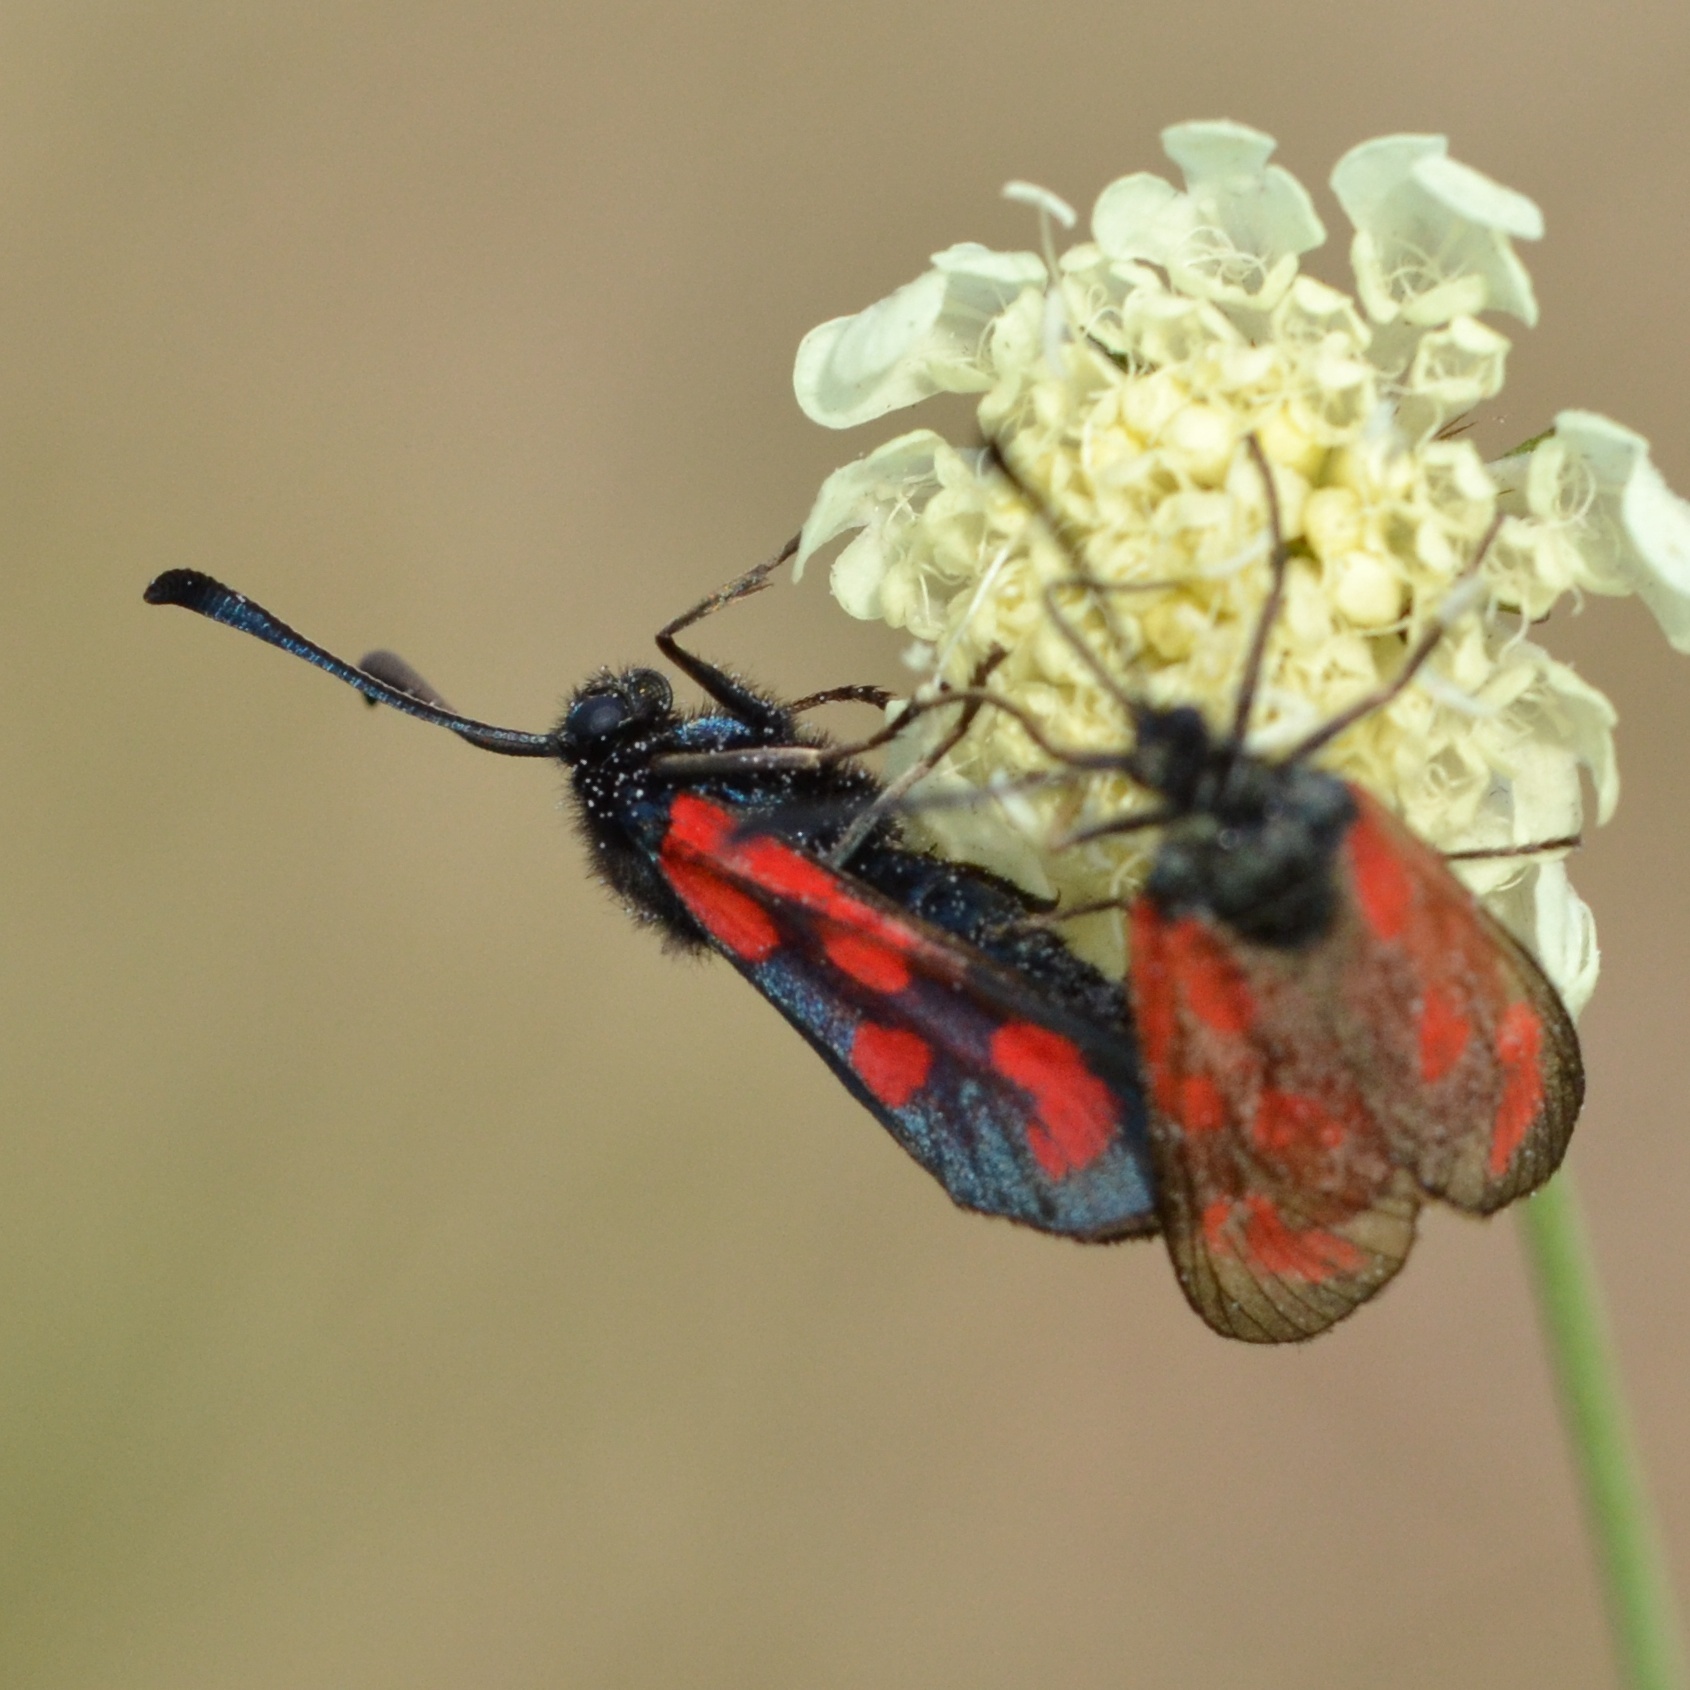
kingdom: Animalia
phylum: Arthropoda
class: Insecta
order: Lepidoptera
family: Zygaenidae
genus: Zygaena
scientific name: Zygaena loti
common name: Slender scotch burnet
